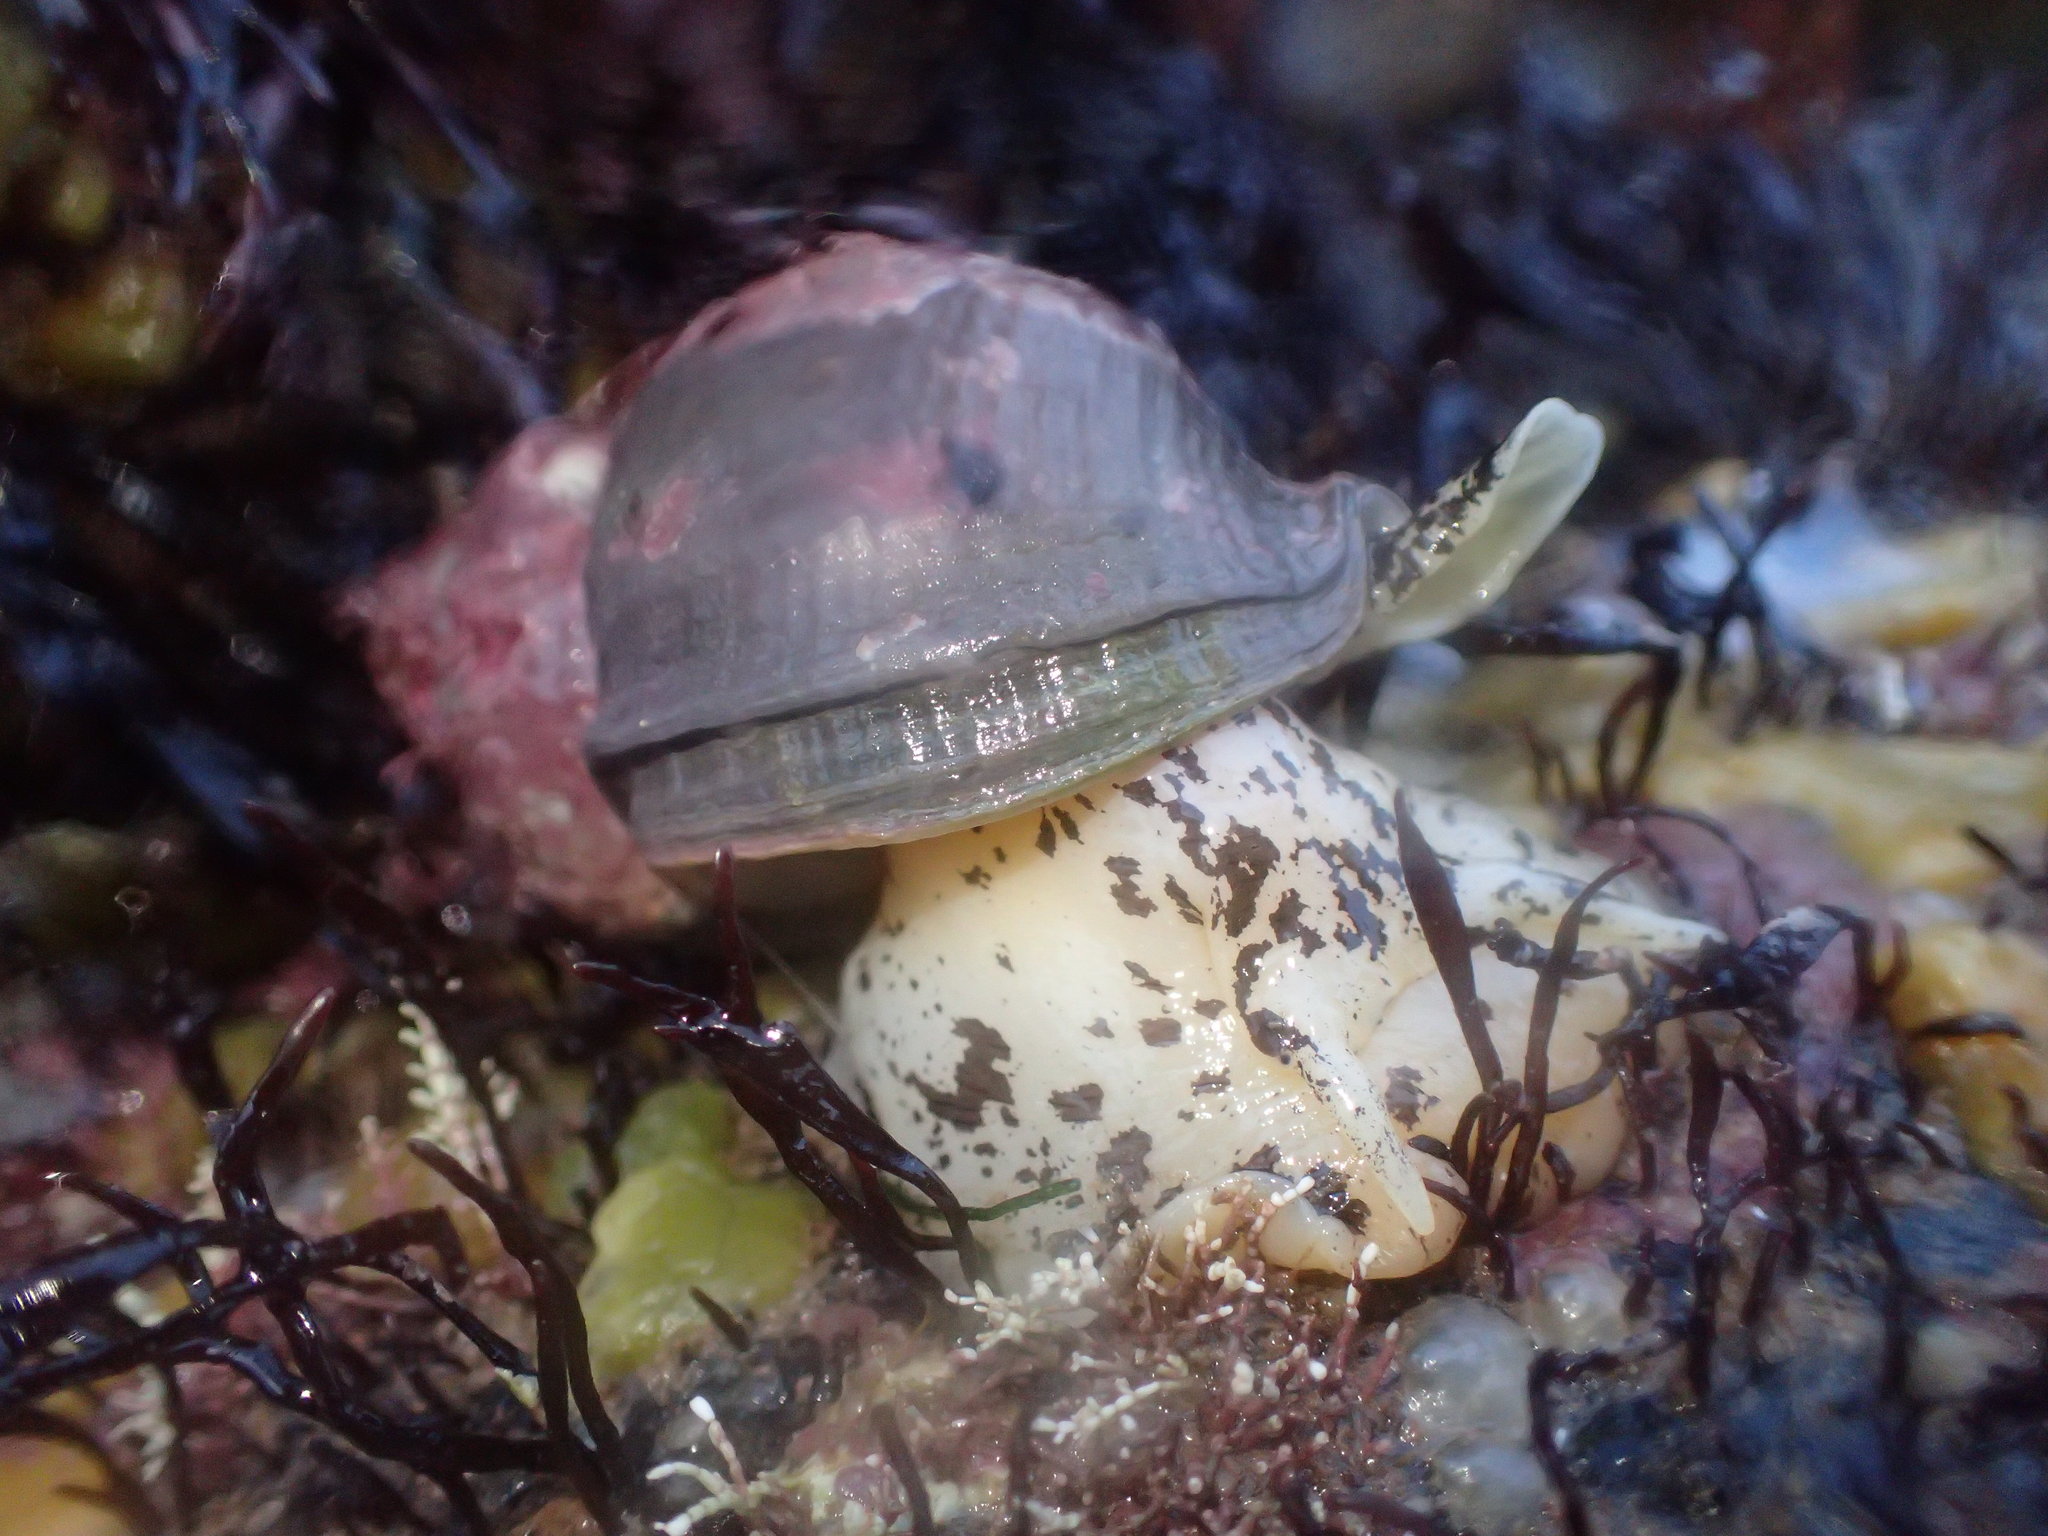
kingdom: Animalia
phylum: Mollusca
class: Gastropoda
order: Neogastropoda
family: Buccinidae
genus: Buccinum
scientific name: Buccinum undatum
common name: Common whelk
